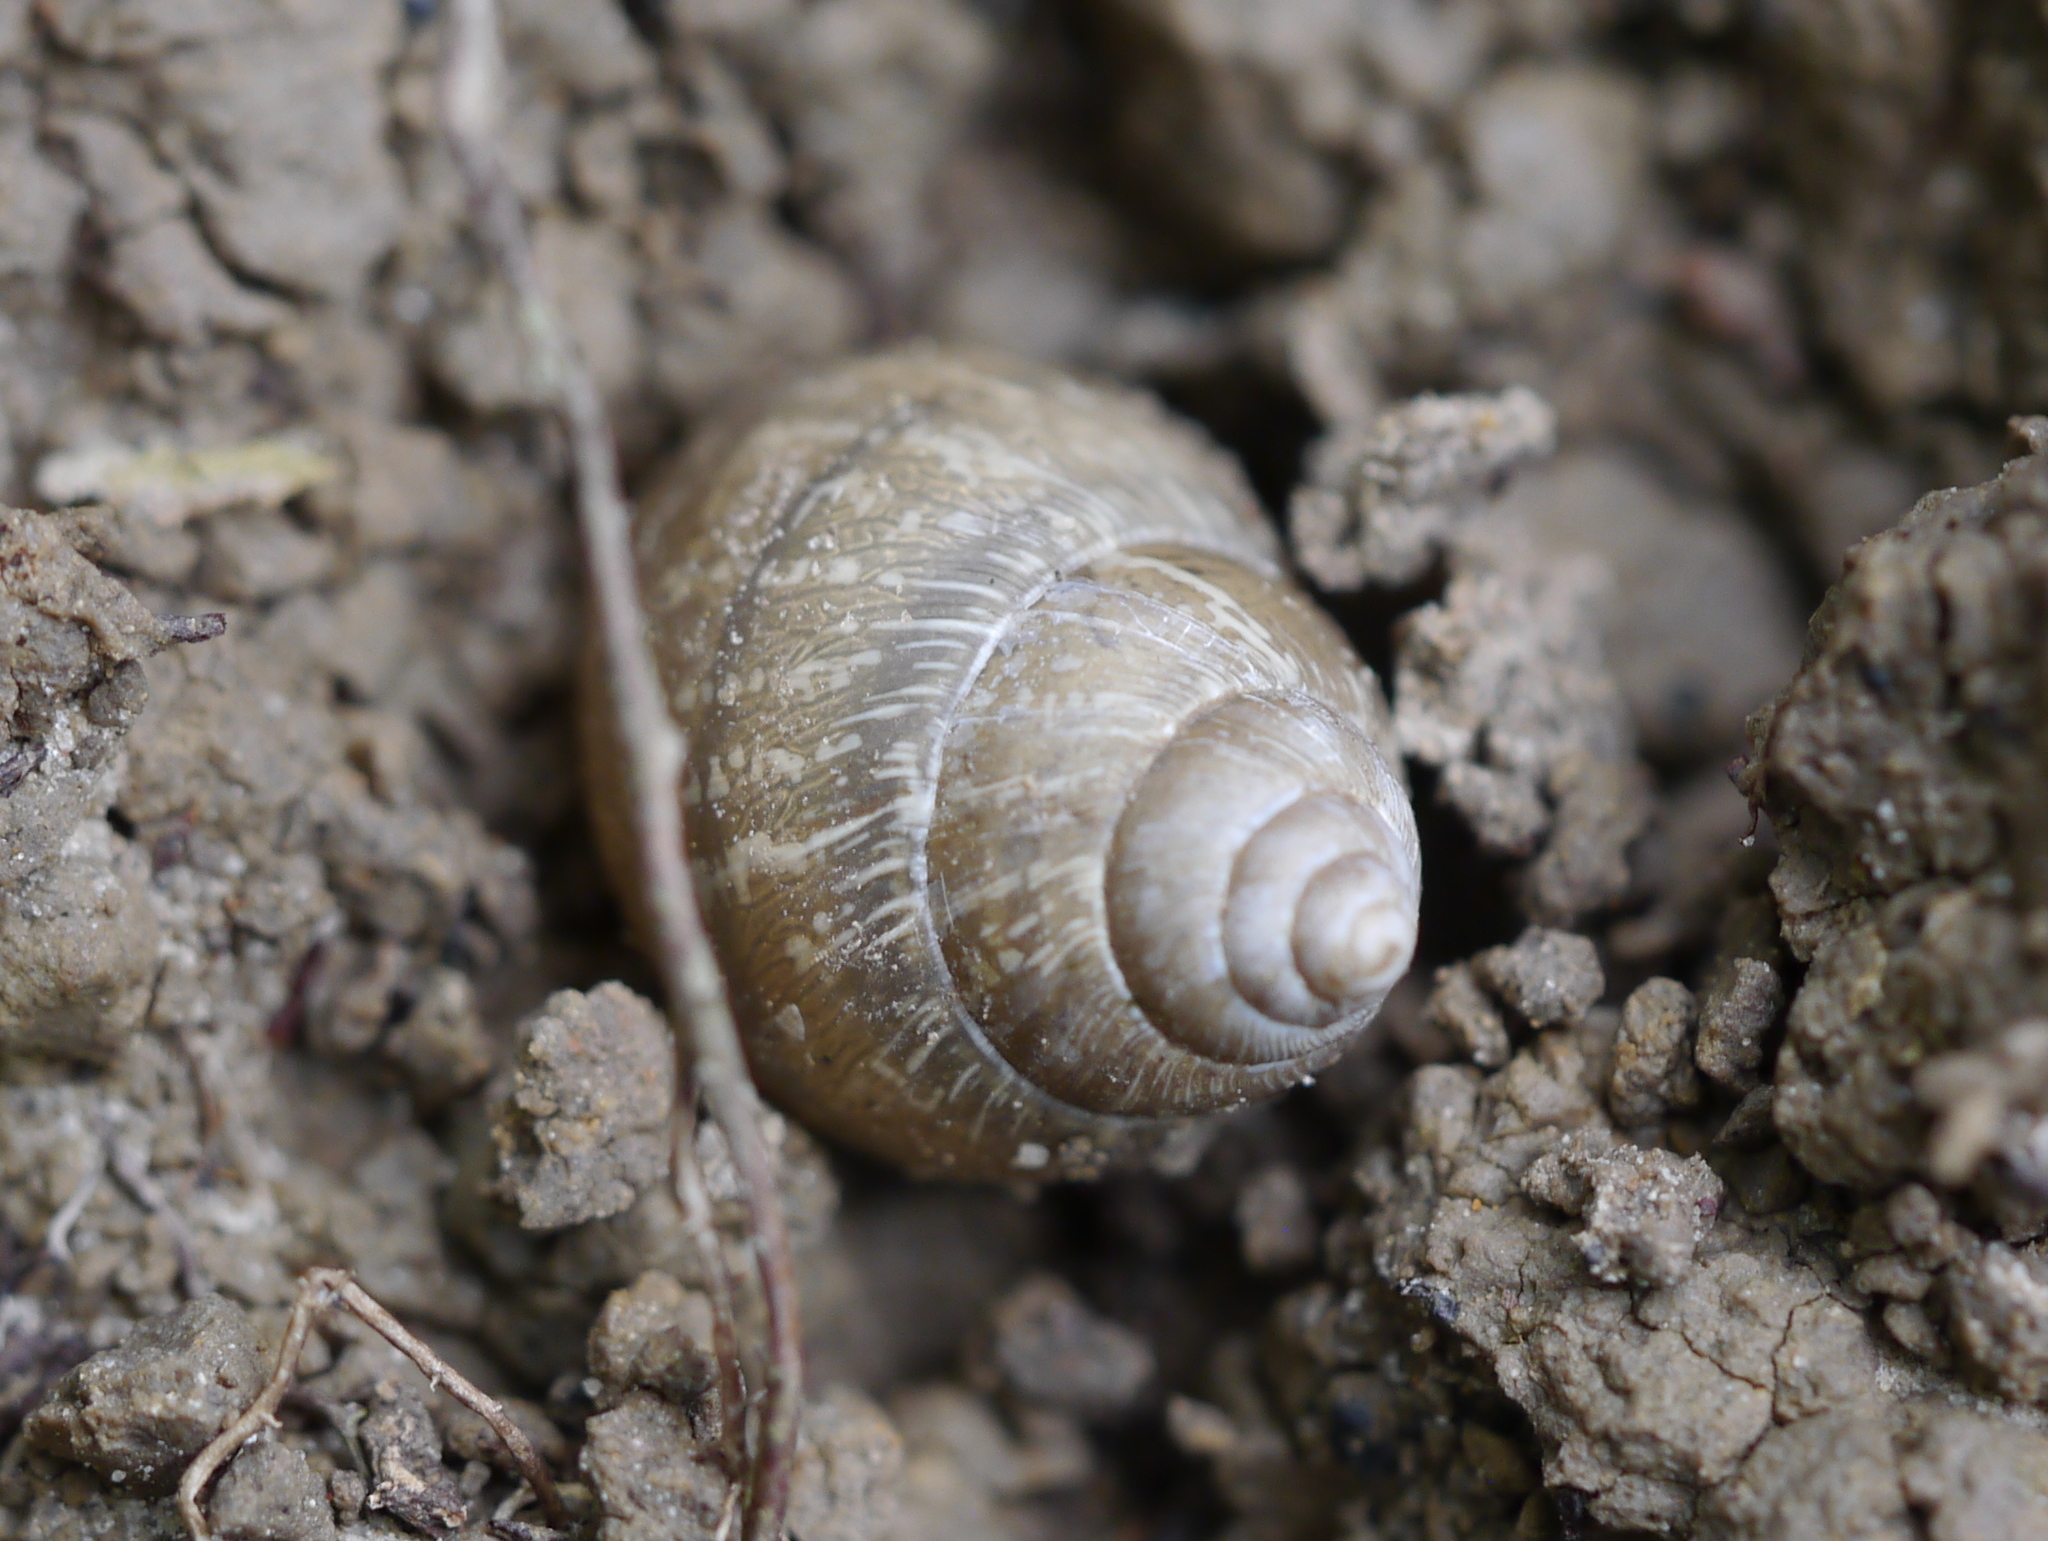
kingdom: Animalia
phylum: Mollusca
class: Gastropoda
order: Stylommatophora
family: Bulimulidae
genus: Rabdotus
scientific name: Rabdotus dealbatus
